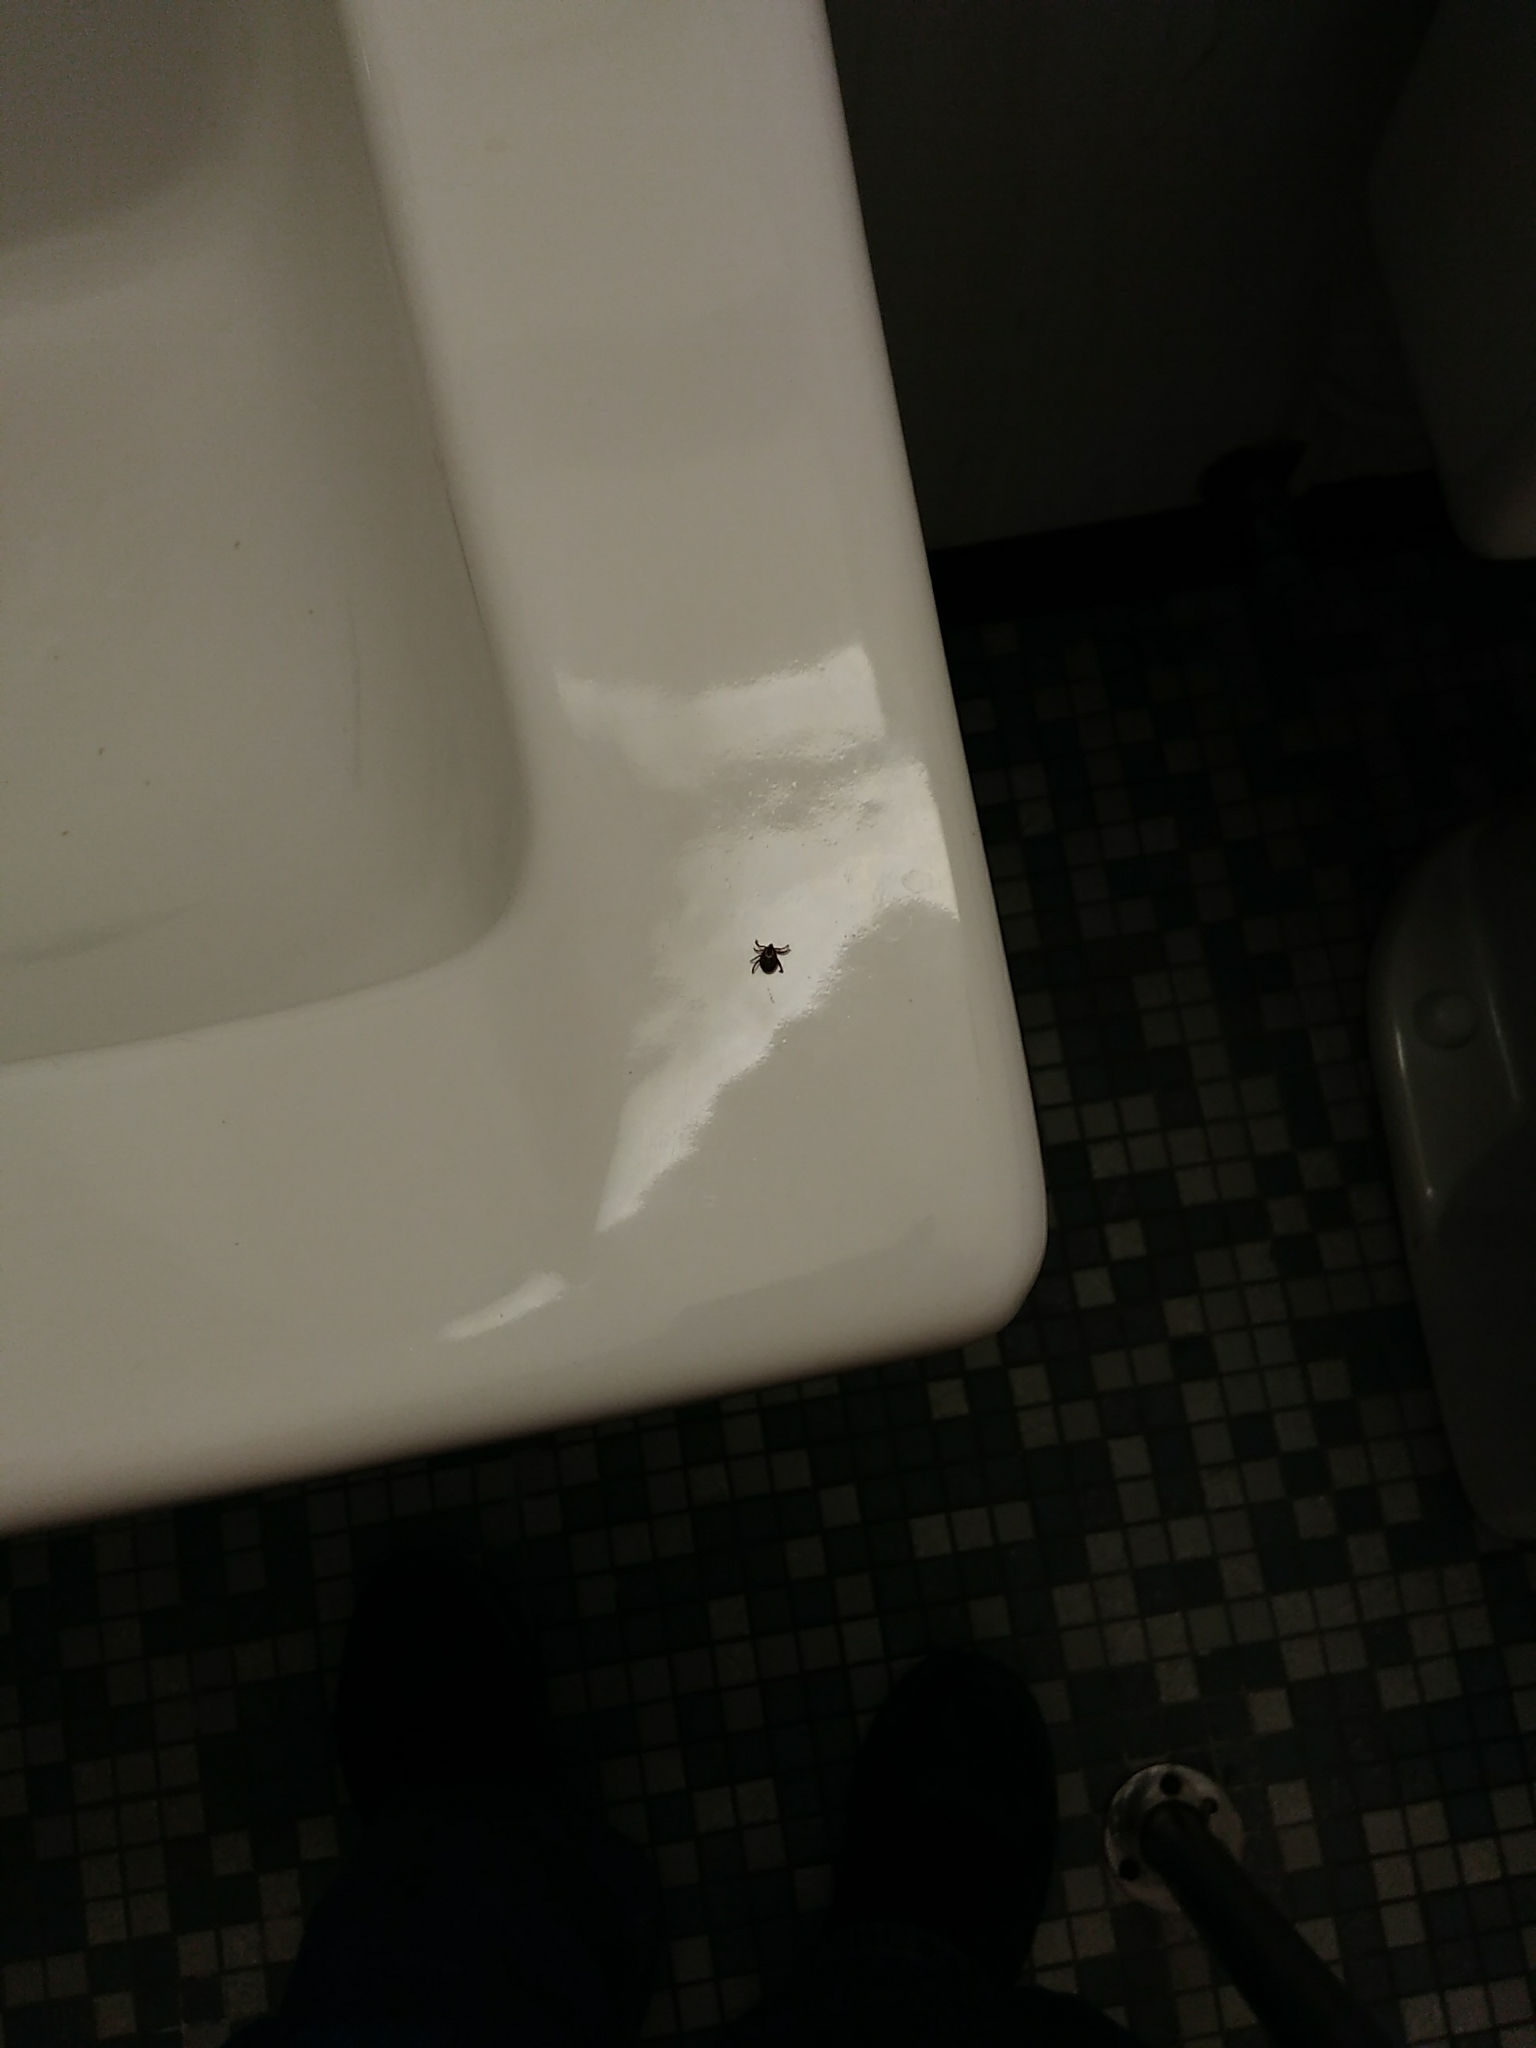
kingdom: Animalia
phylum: Arthropoda
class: Arachnida
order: Ixodida
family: Ixodidae
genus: Dermacentor
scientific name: Dermacentor variabilis
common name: American dog tick
